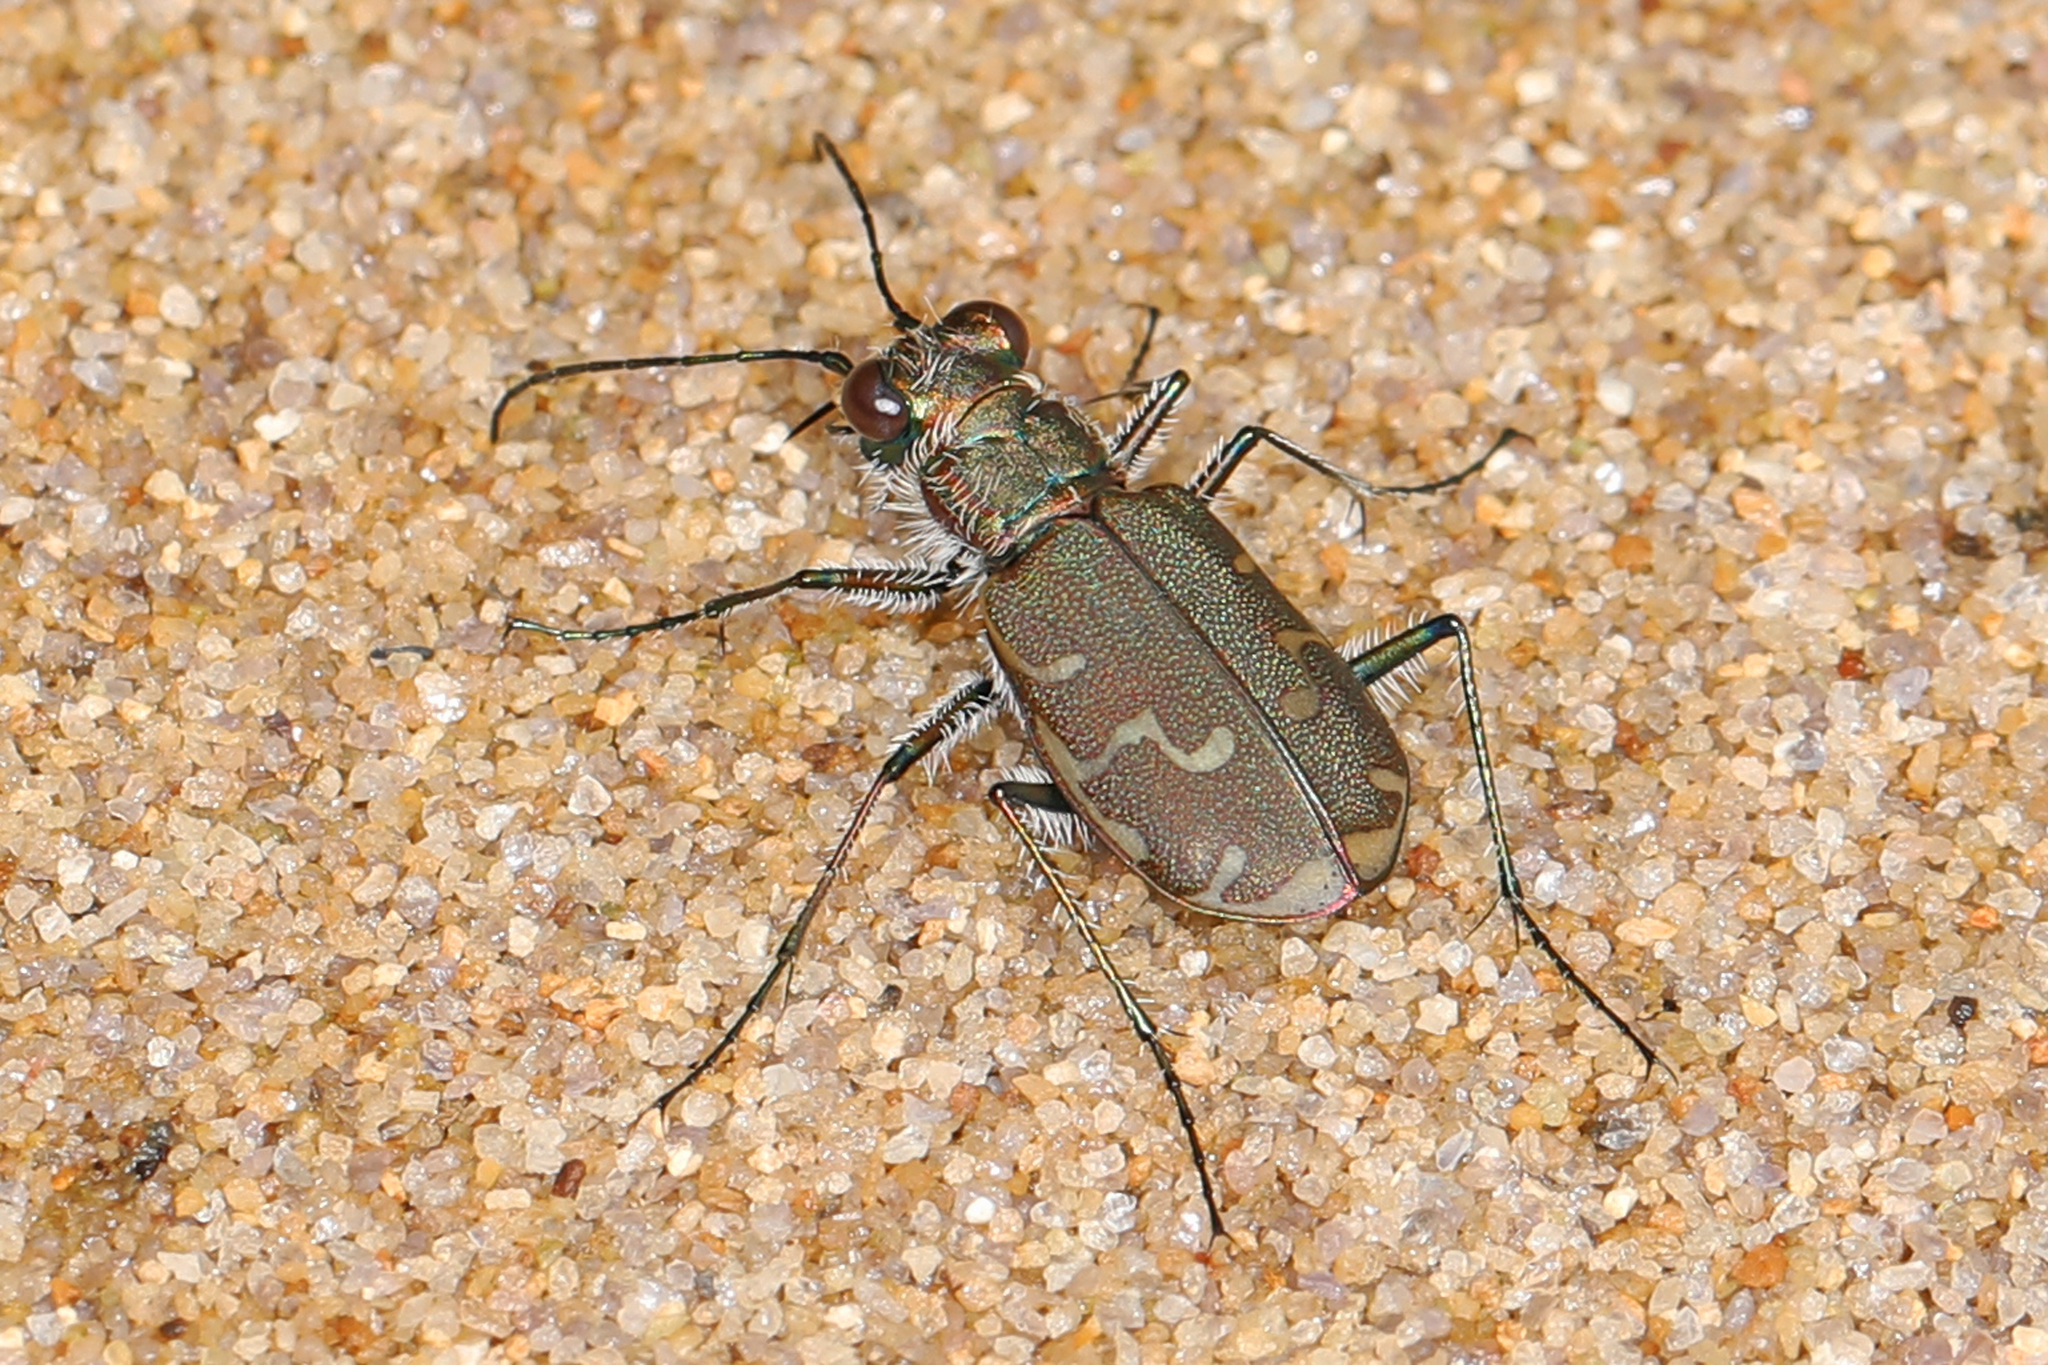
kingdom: Animalia
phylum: Arthropoda
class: Insecta
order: Coleoptera
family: Carabidae
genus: Cicindela
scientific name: Cicindela repanda
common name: Bronzed tiger beetle
